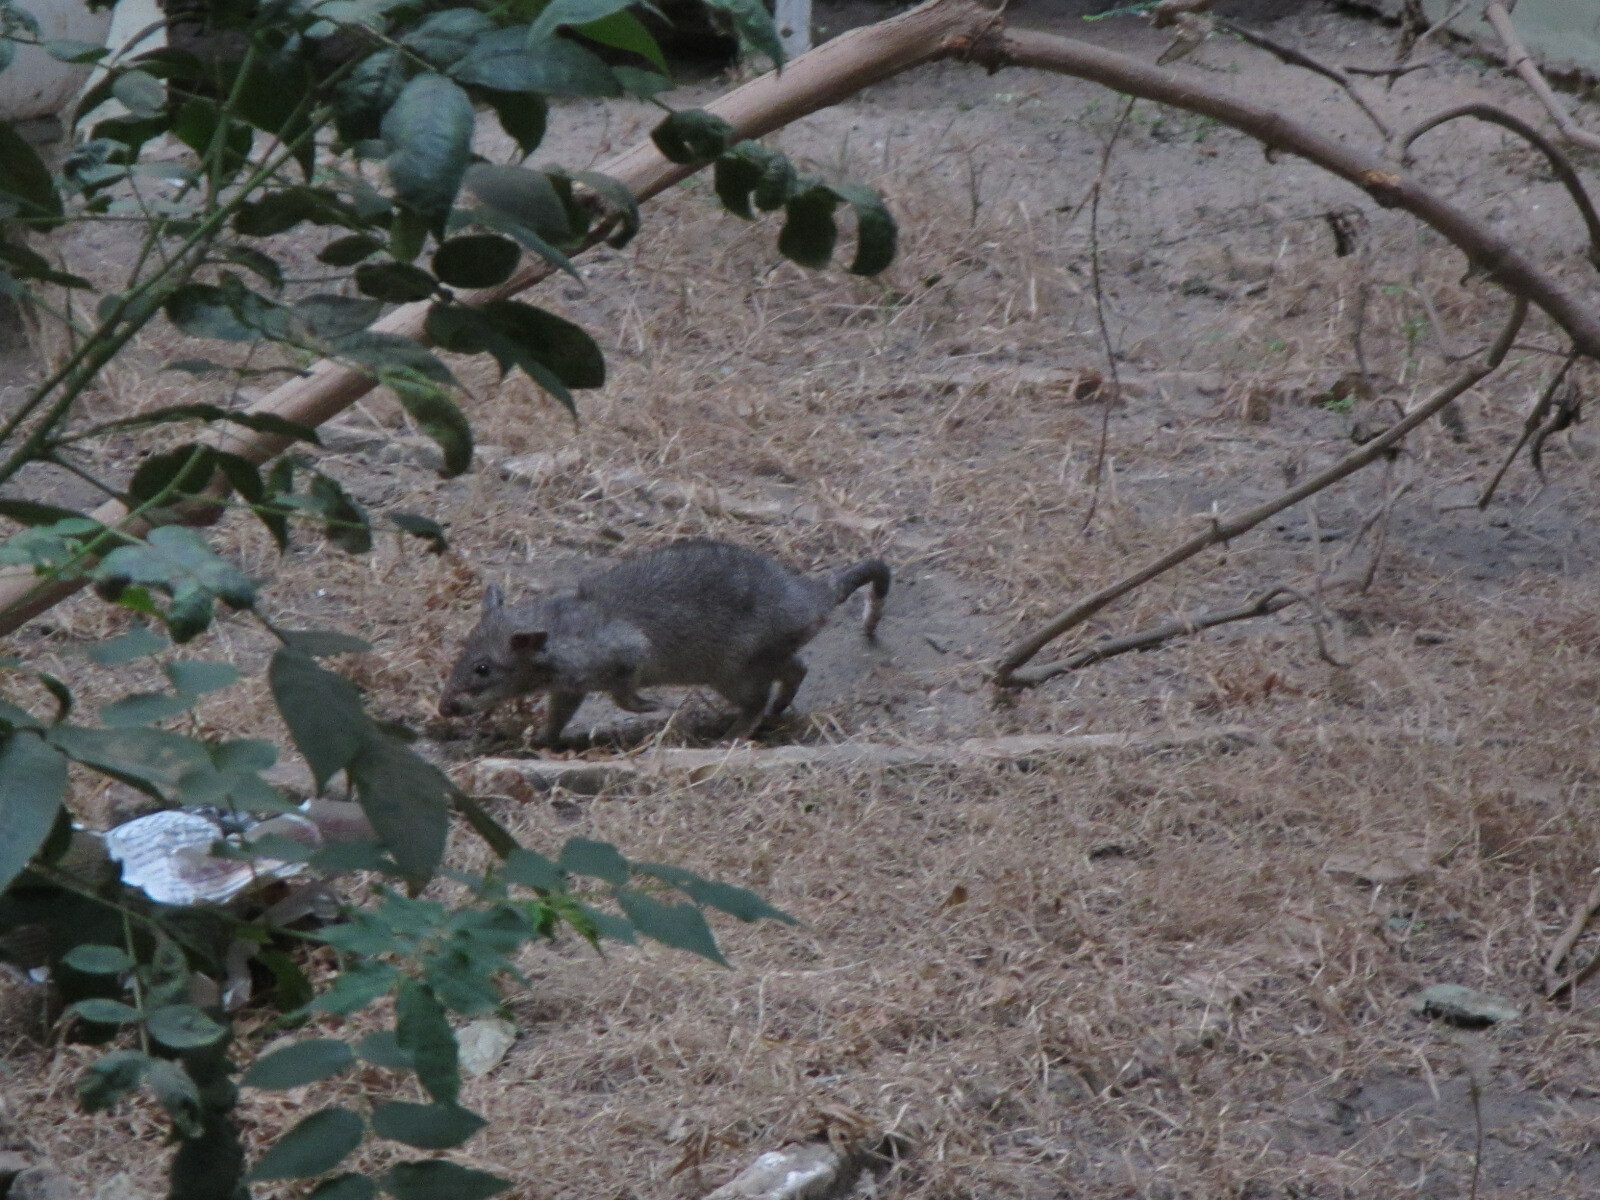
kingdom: Animalia
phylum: Chordata
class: Mammalia
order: Rodentia
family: Nesomyidae
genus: Cricetomys
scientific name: Cricetomys gambianus
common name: Northern giant pouched rat
